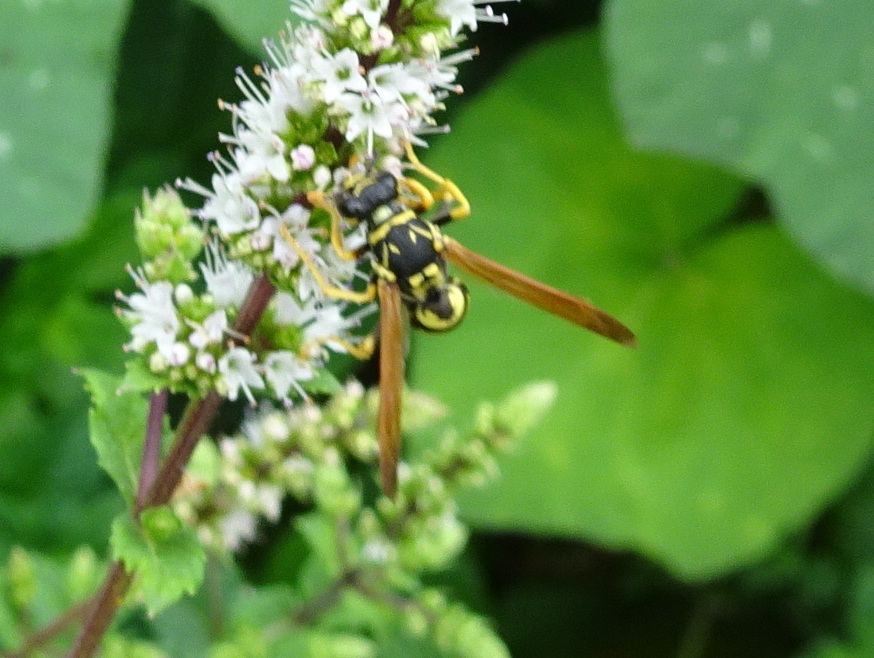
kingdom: Animalia
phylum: Arthropoda
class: Insecta
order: Hymenoptera
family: Eumenidae
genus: Polistes
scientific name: Polistes dominula
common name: Paper wasp
